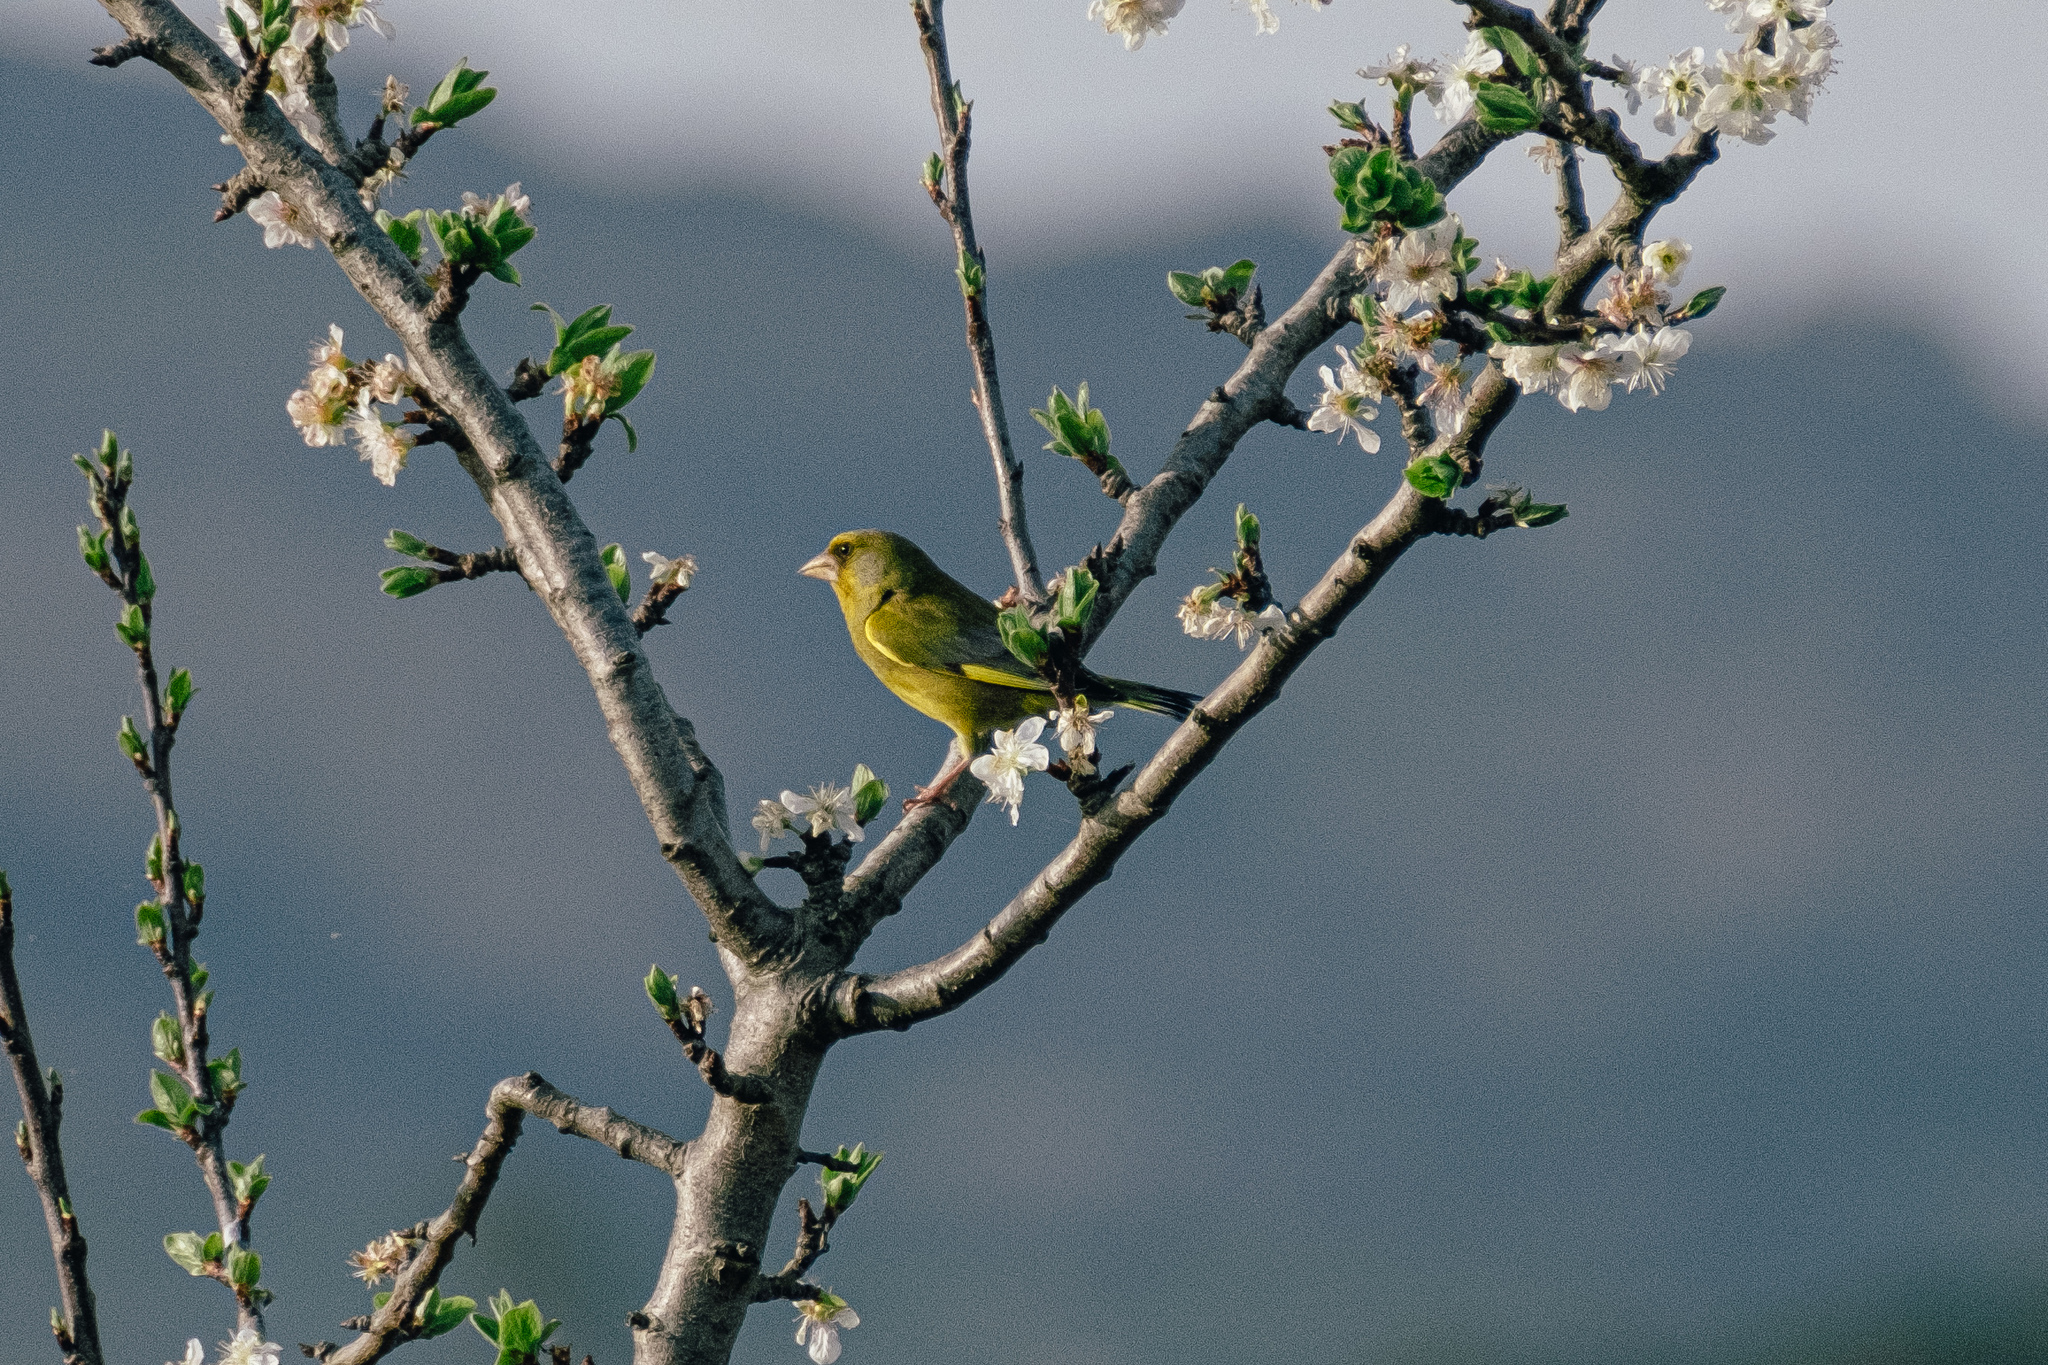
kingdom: Plantae
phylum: Tracheophyta
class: Liliopsida
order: Poales
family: Poaceae
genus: Chloris
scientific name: Chloris chloris
